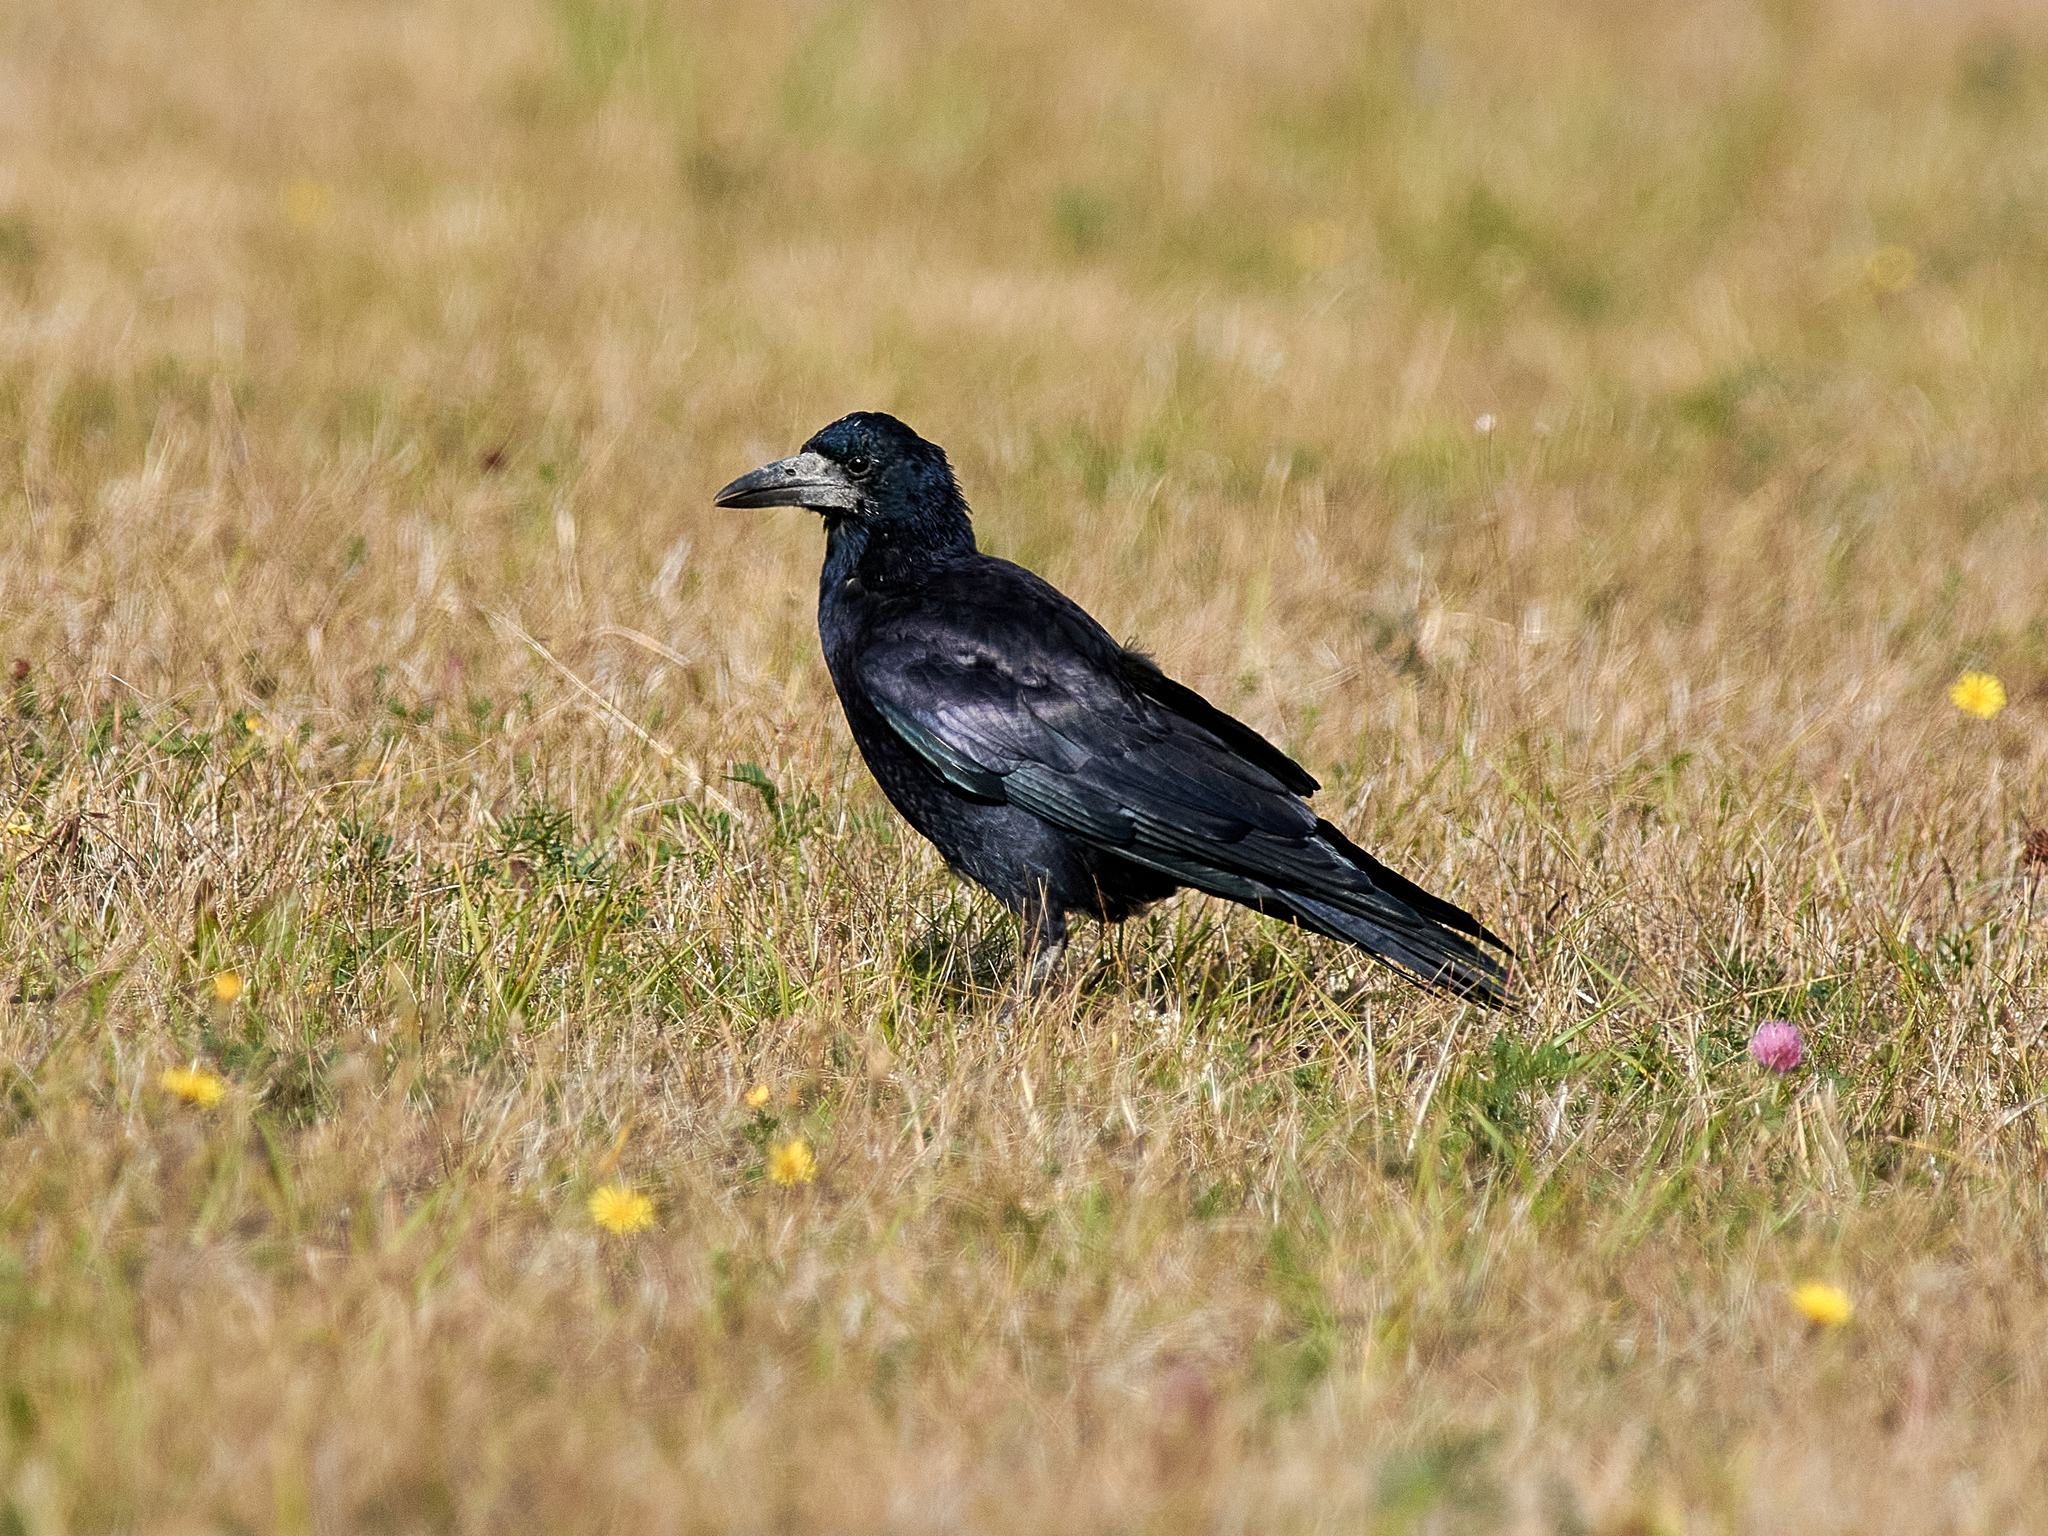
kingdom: Animalia
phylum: Chordata
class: Aves
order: Passeriformes
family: Corvidae
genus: Corvus
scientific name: Corvus frugilegus
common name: Rook
